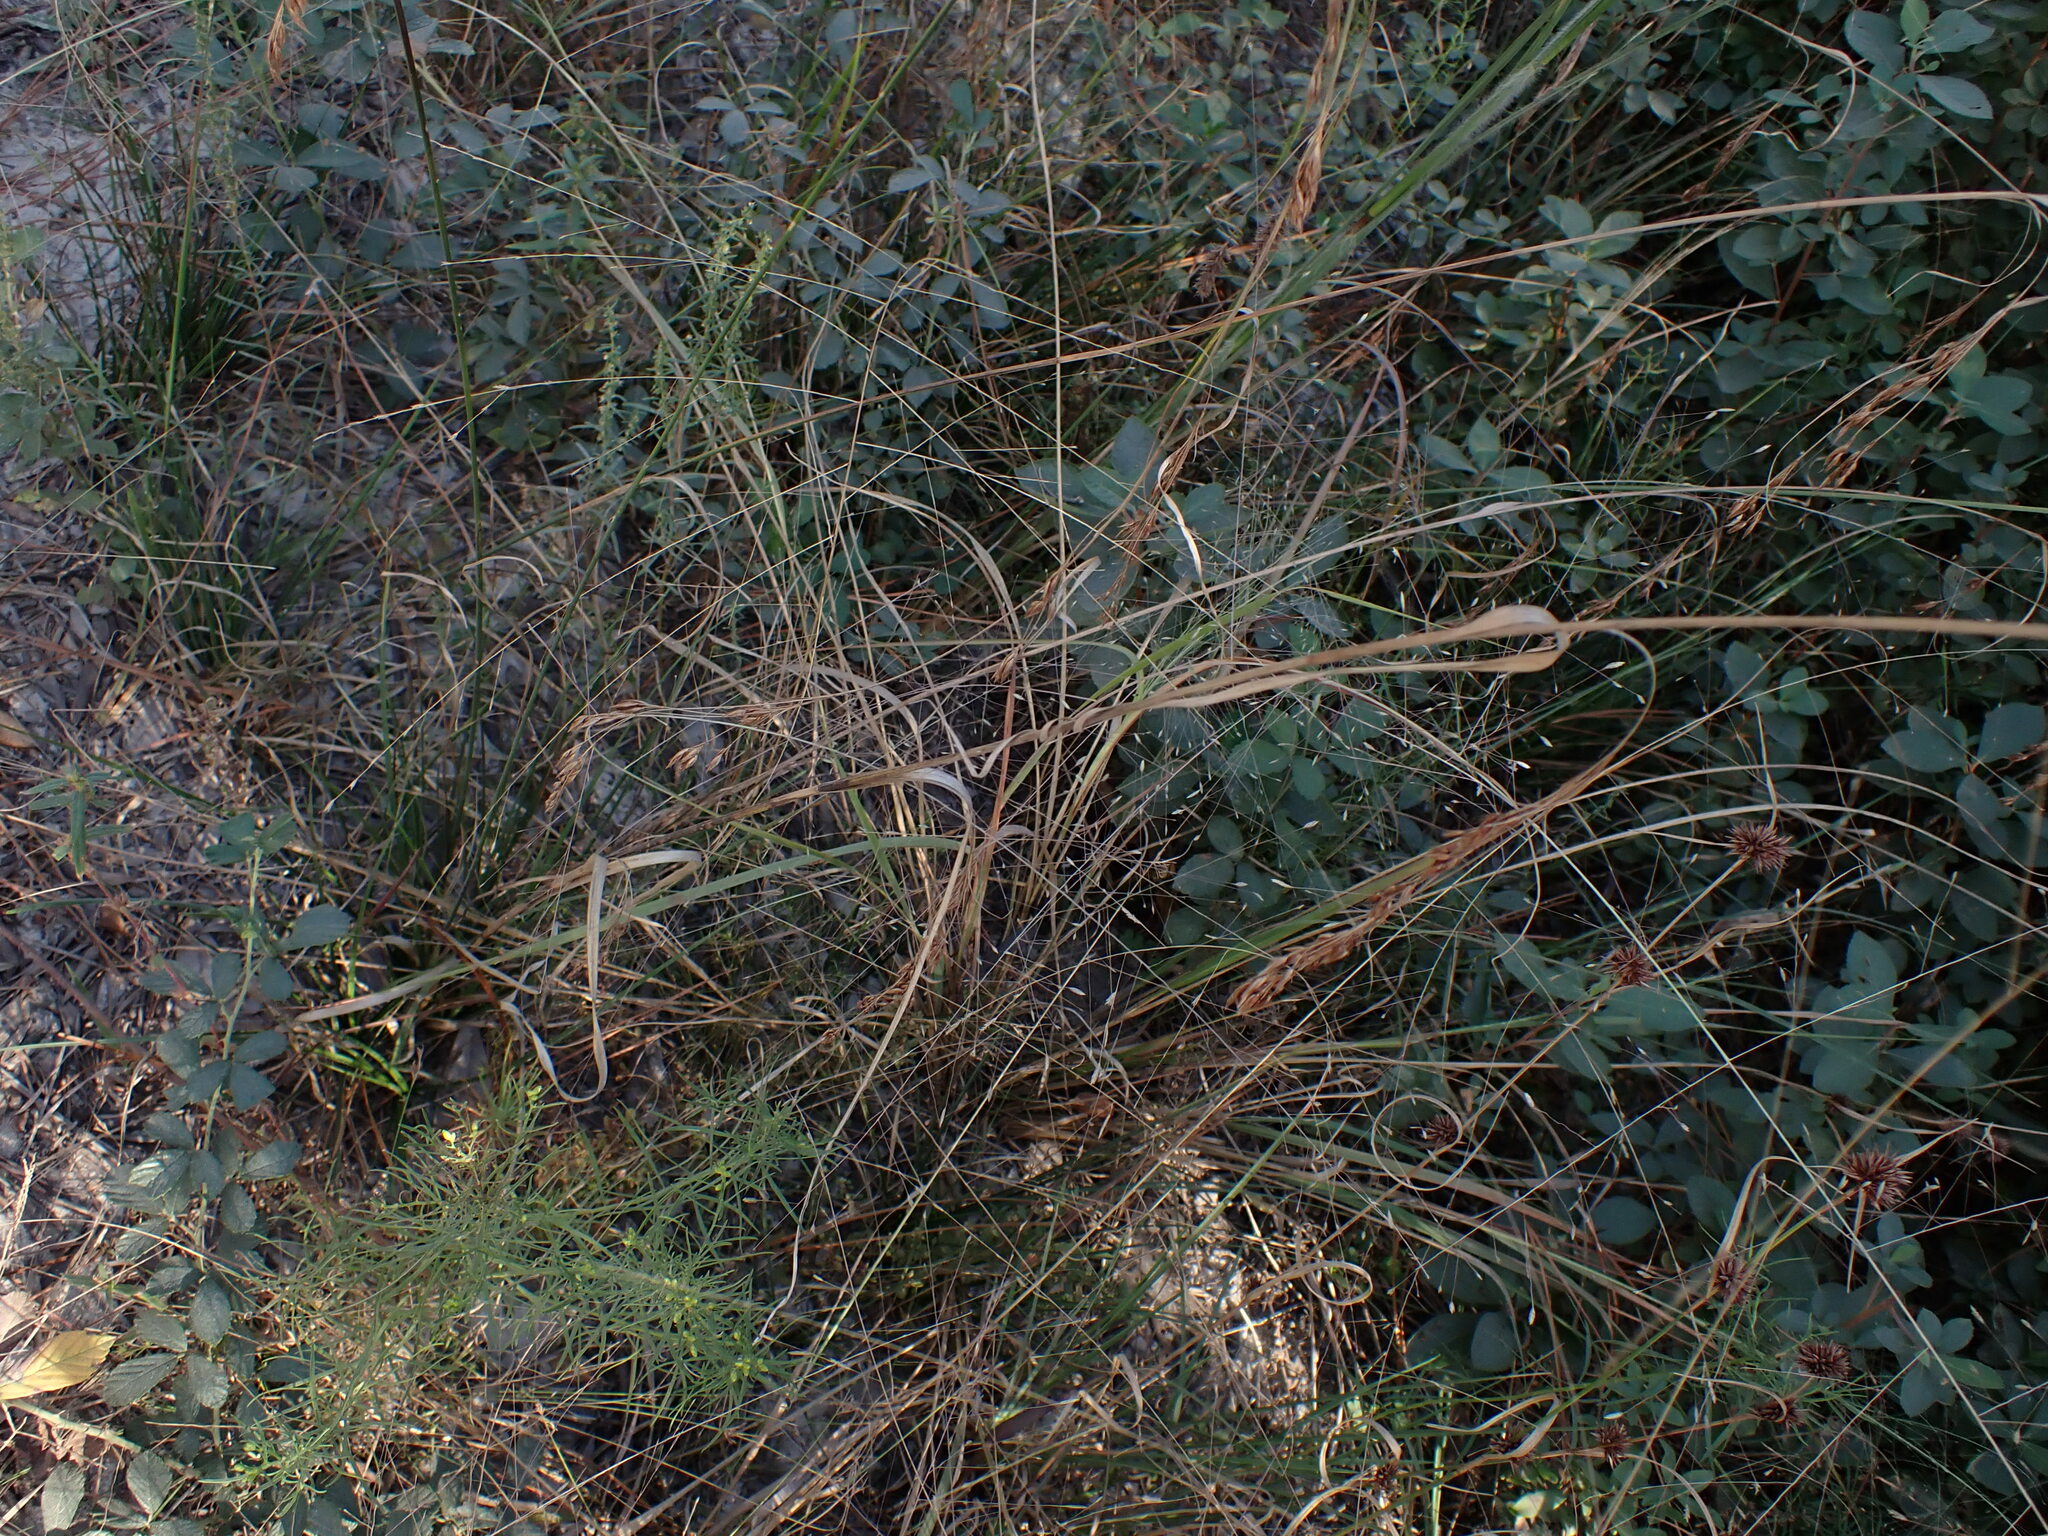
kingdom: Plantae
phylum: Tracheophyta
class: Liliopsida
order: Poales
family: Cyperaceae
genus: Rhynchospora
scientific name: Rhynchospora inexpansa
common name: Nodding beaksedge
